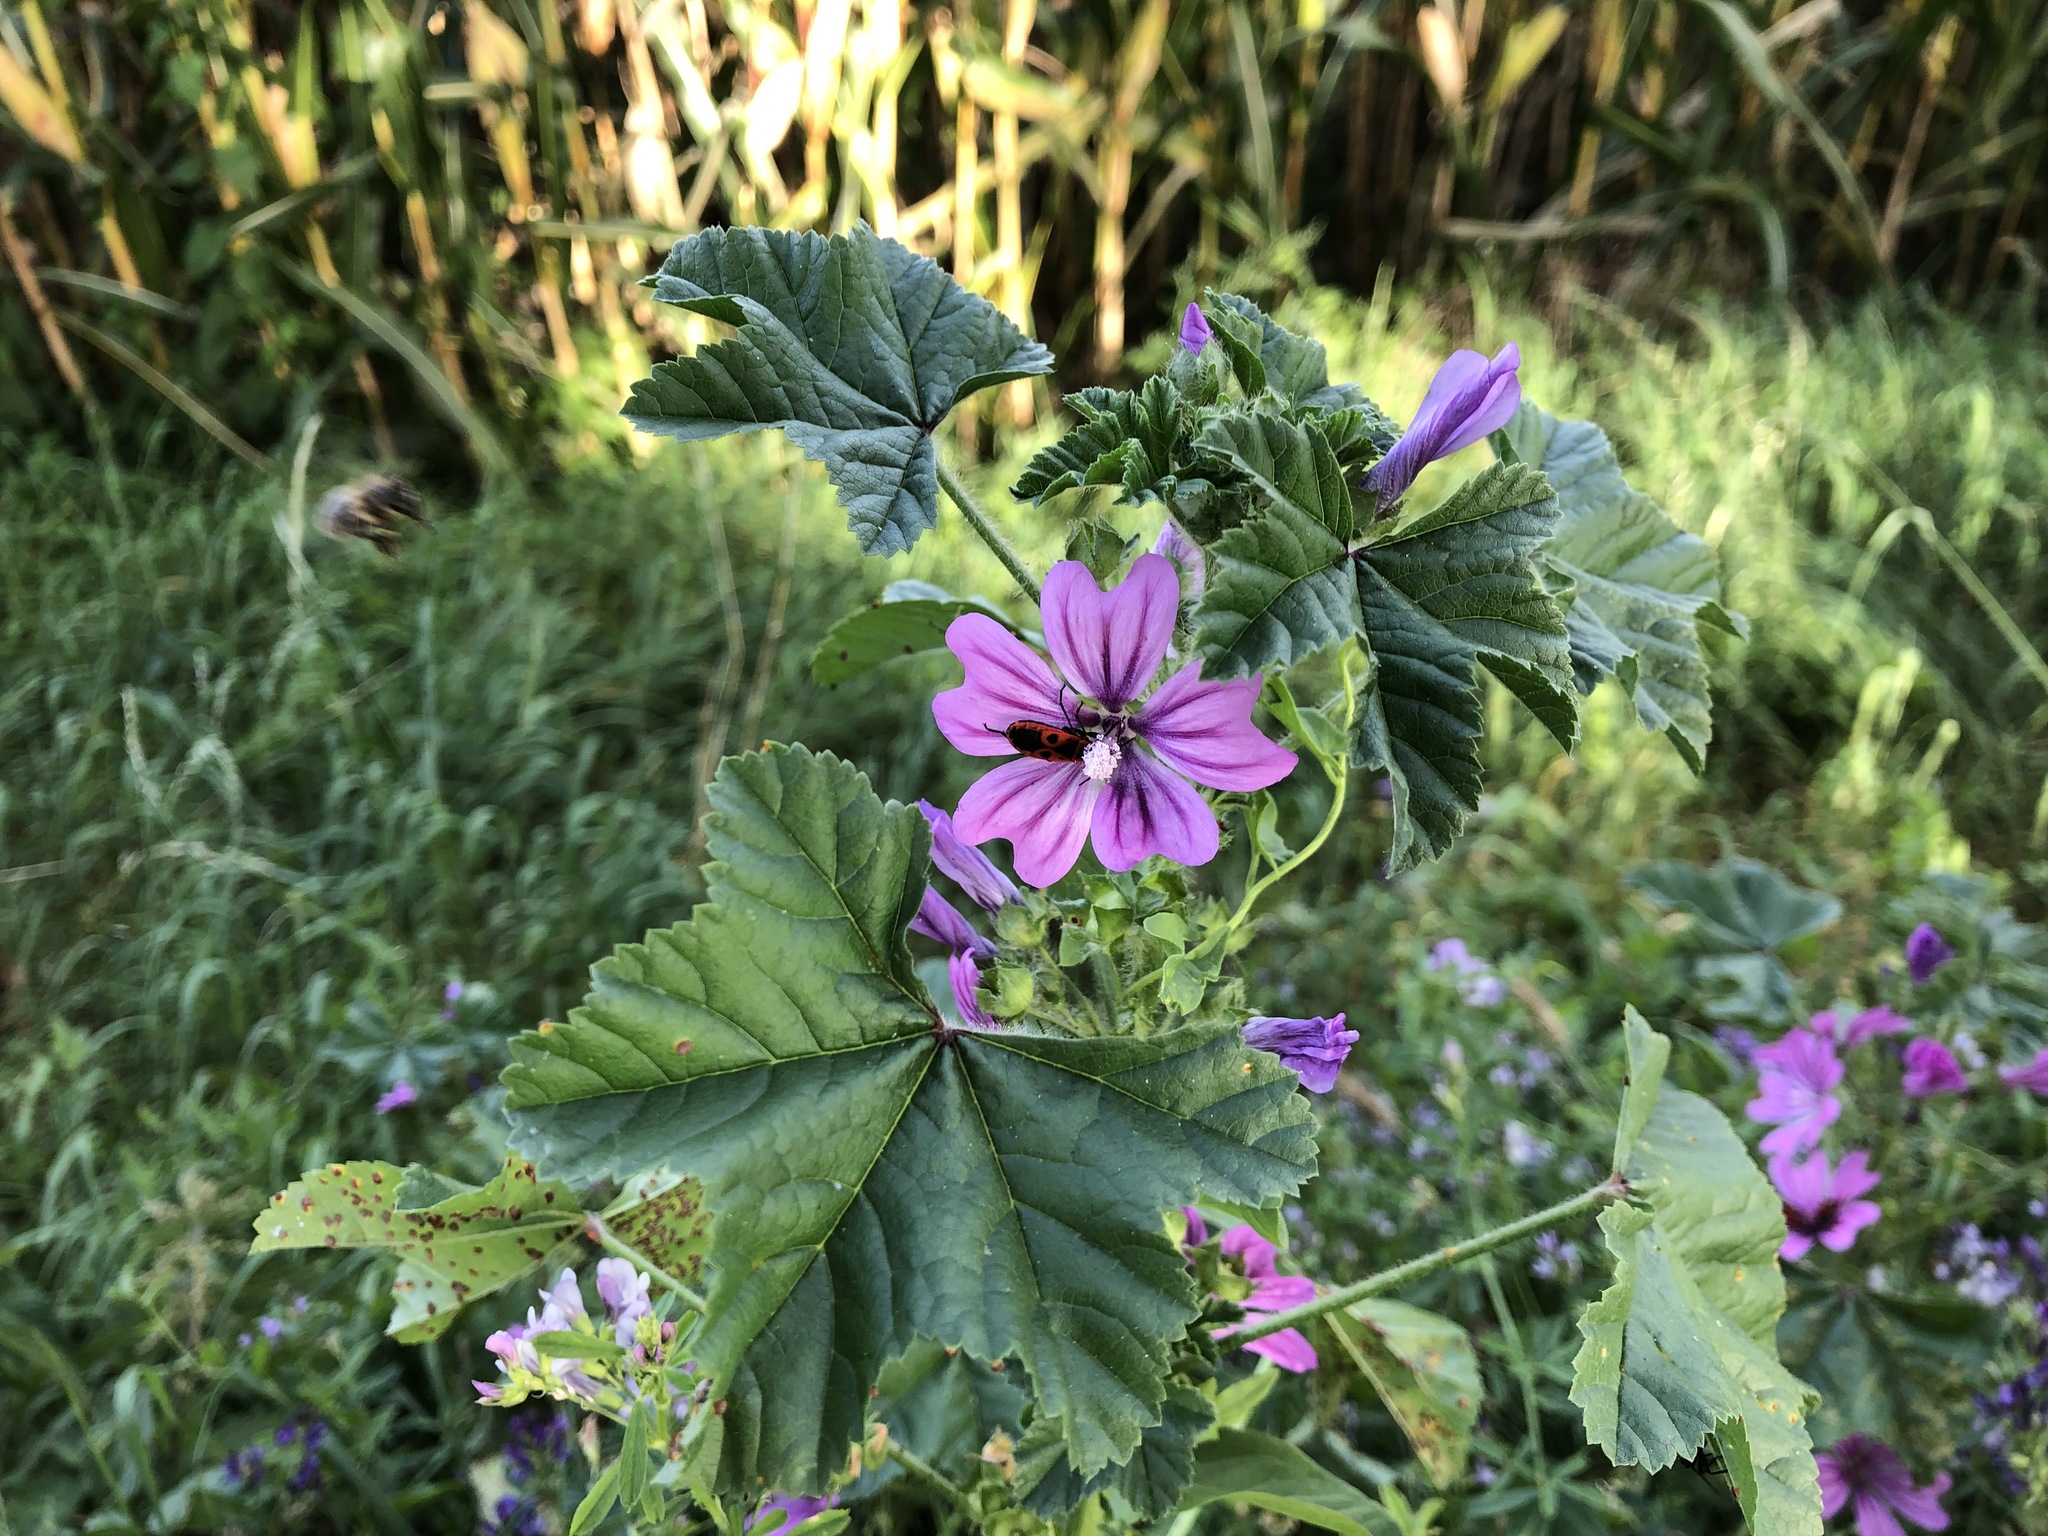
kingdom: Plantae
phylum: Tracheophyta
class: Magnoliopsida
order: Malvales
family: Malvaceae
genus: Malva
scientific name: Malva sylvestris
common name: Common mallow
